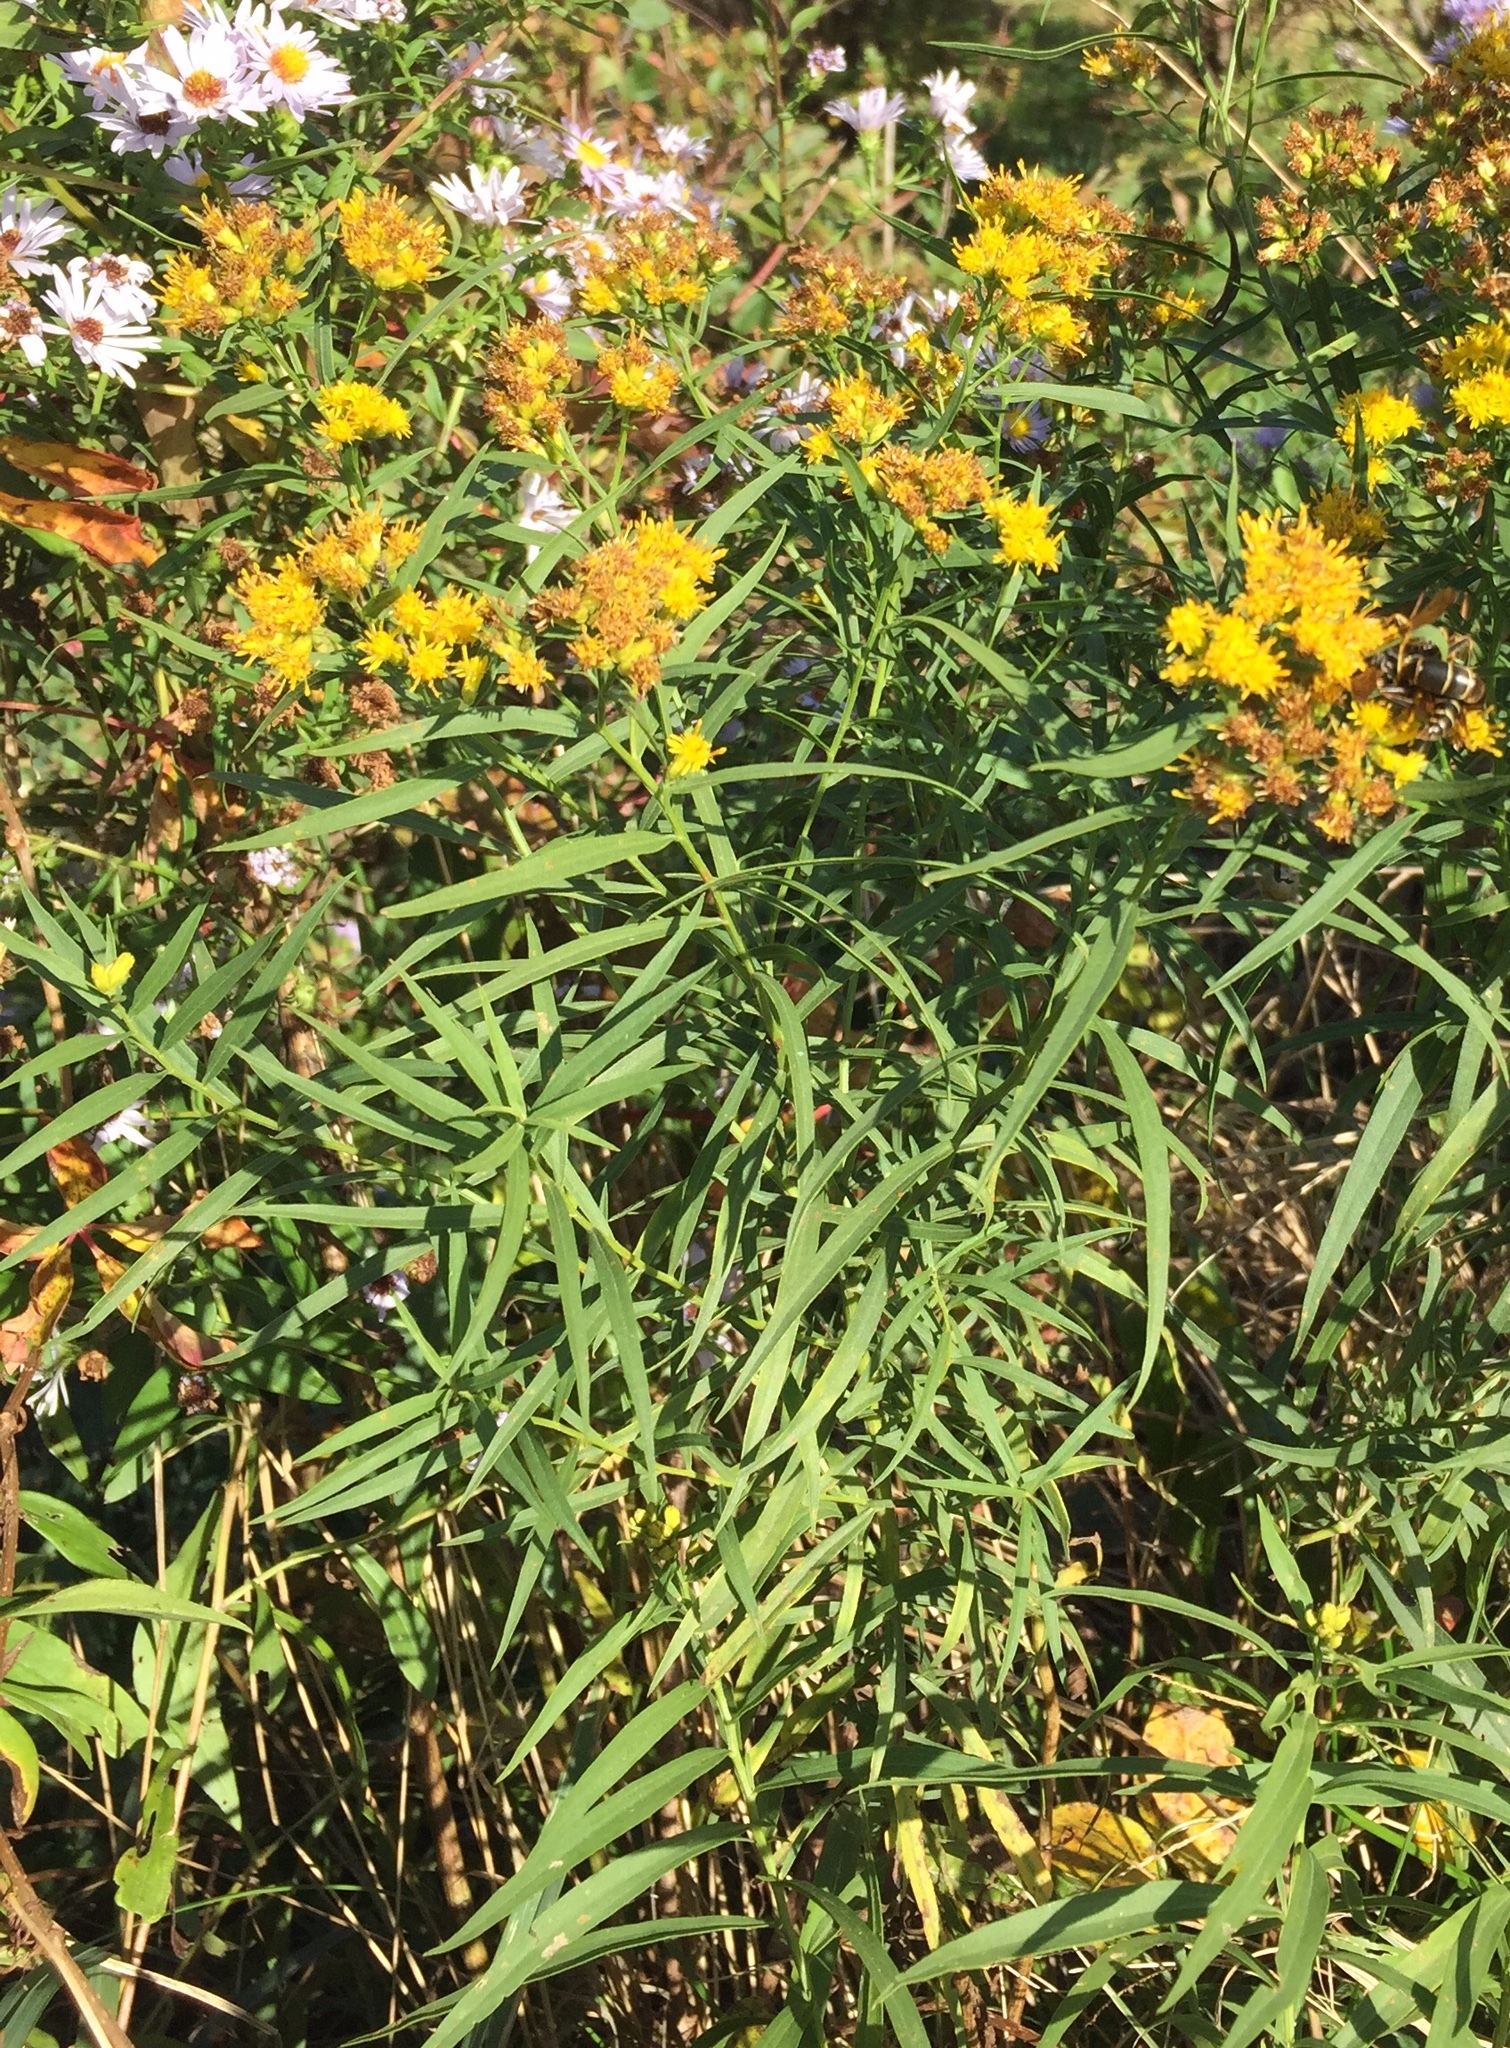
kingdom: Plantae
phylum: Tracheophyta
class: Magnoliopsida
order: Asterales
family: Asteraceae
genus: Euthamia
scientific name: Euthamia graminifolia
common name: Common goldentop
